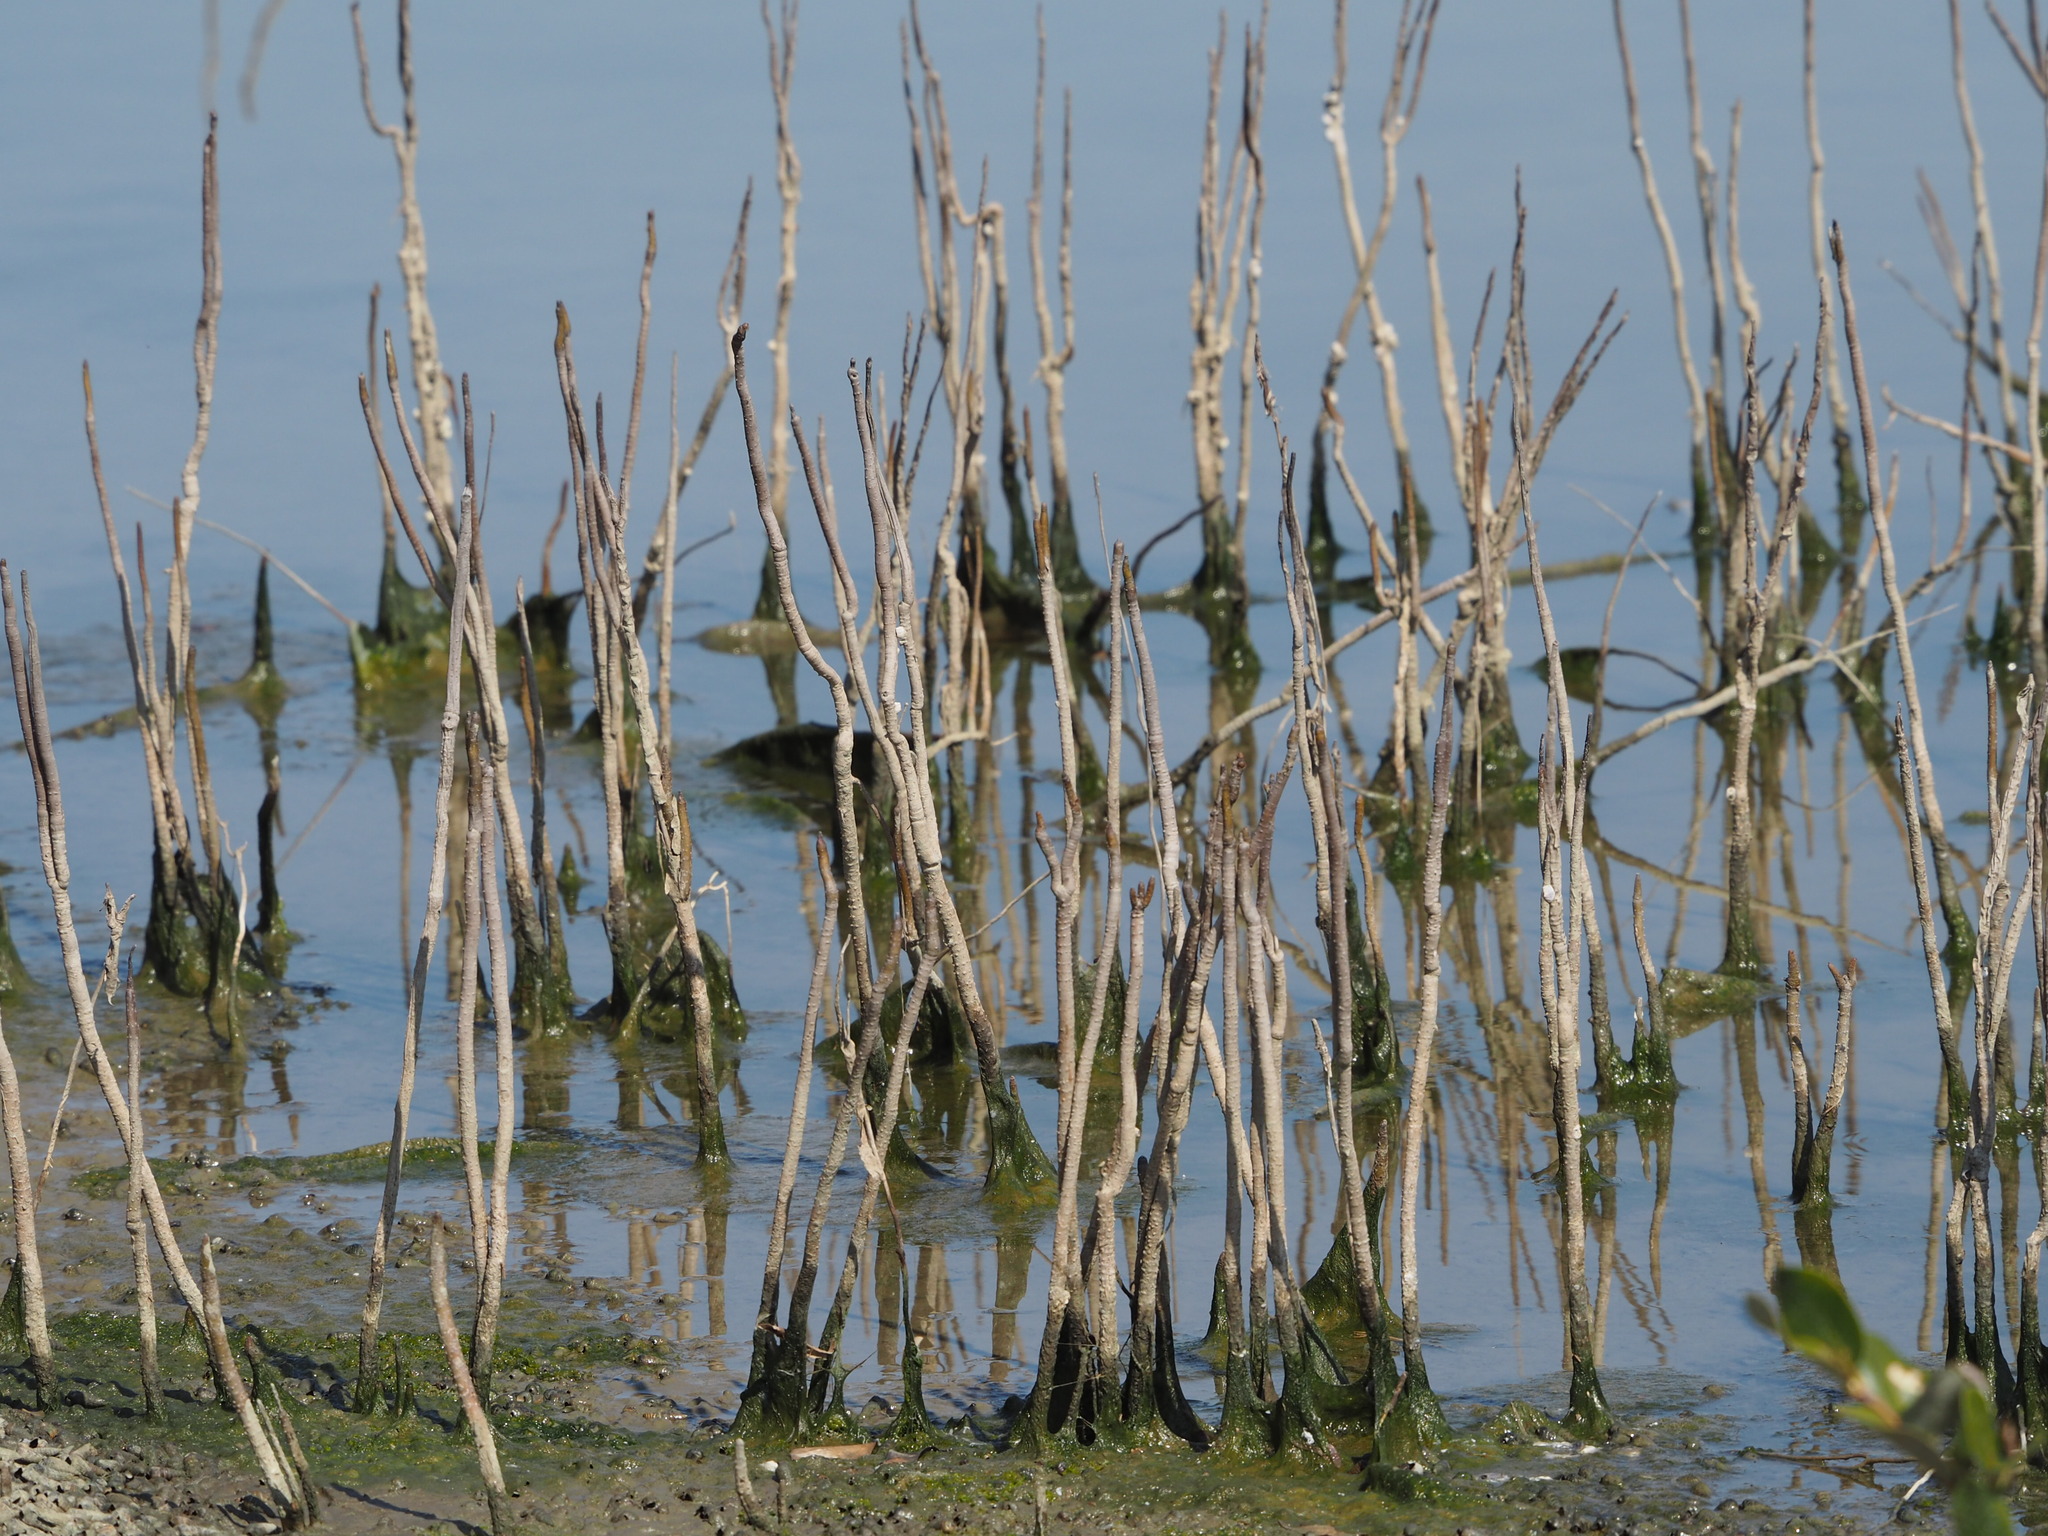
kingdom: Plantae
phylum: Tracheophyta
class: Magnoliopsida
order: Lamiales
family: Acanthaceae
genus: Avicennia
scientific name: Avicennia marina
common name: Gray mangrove
